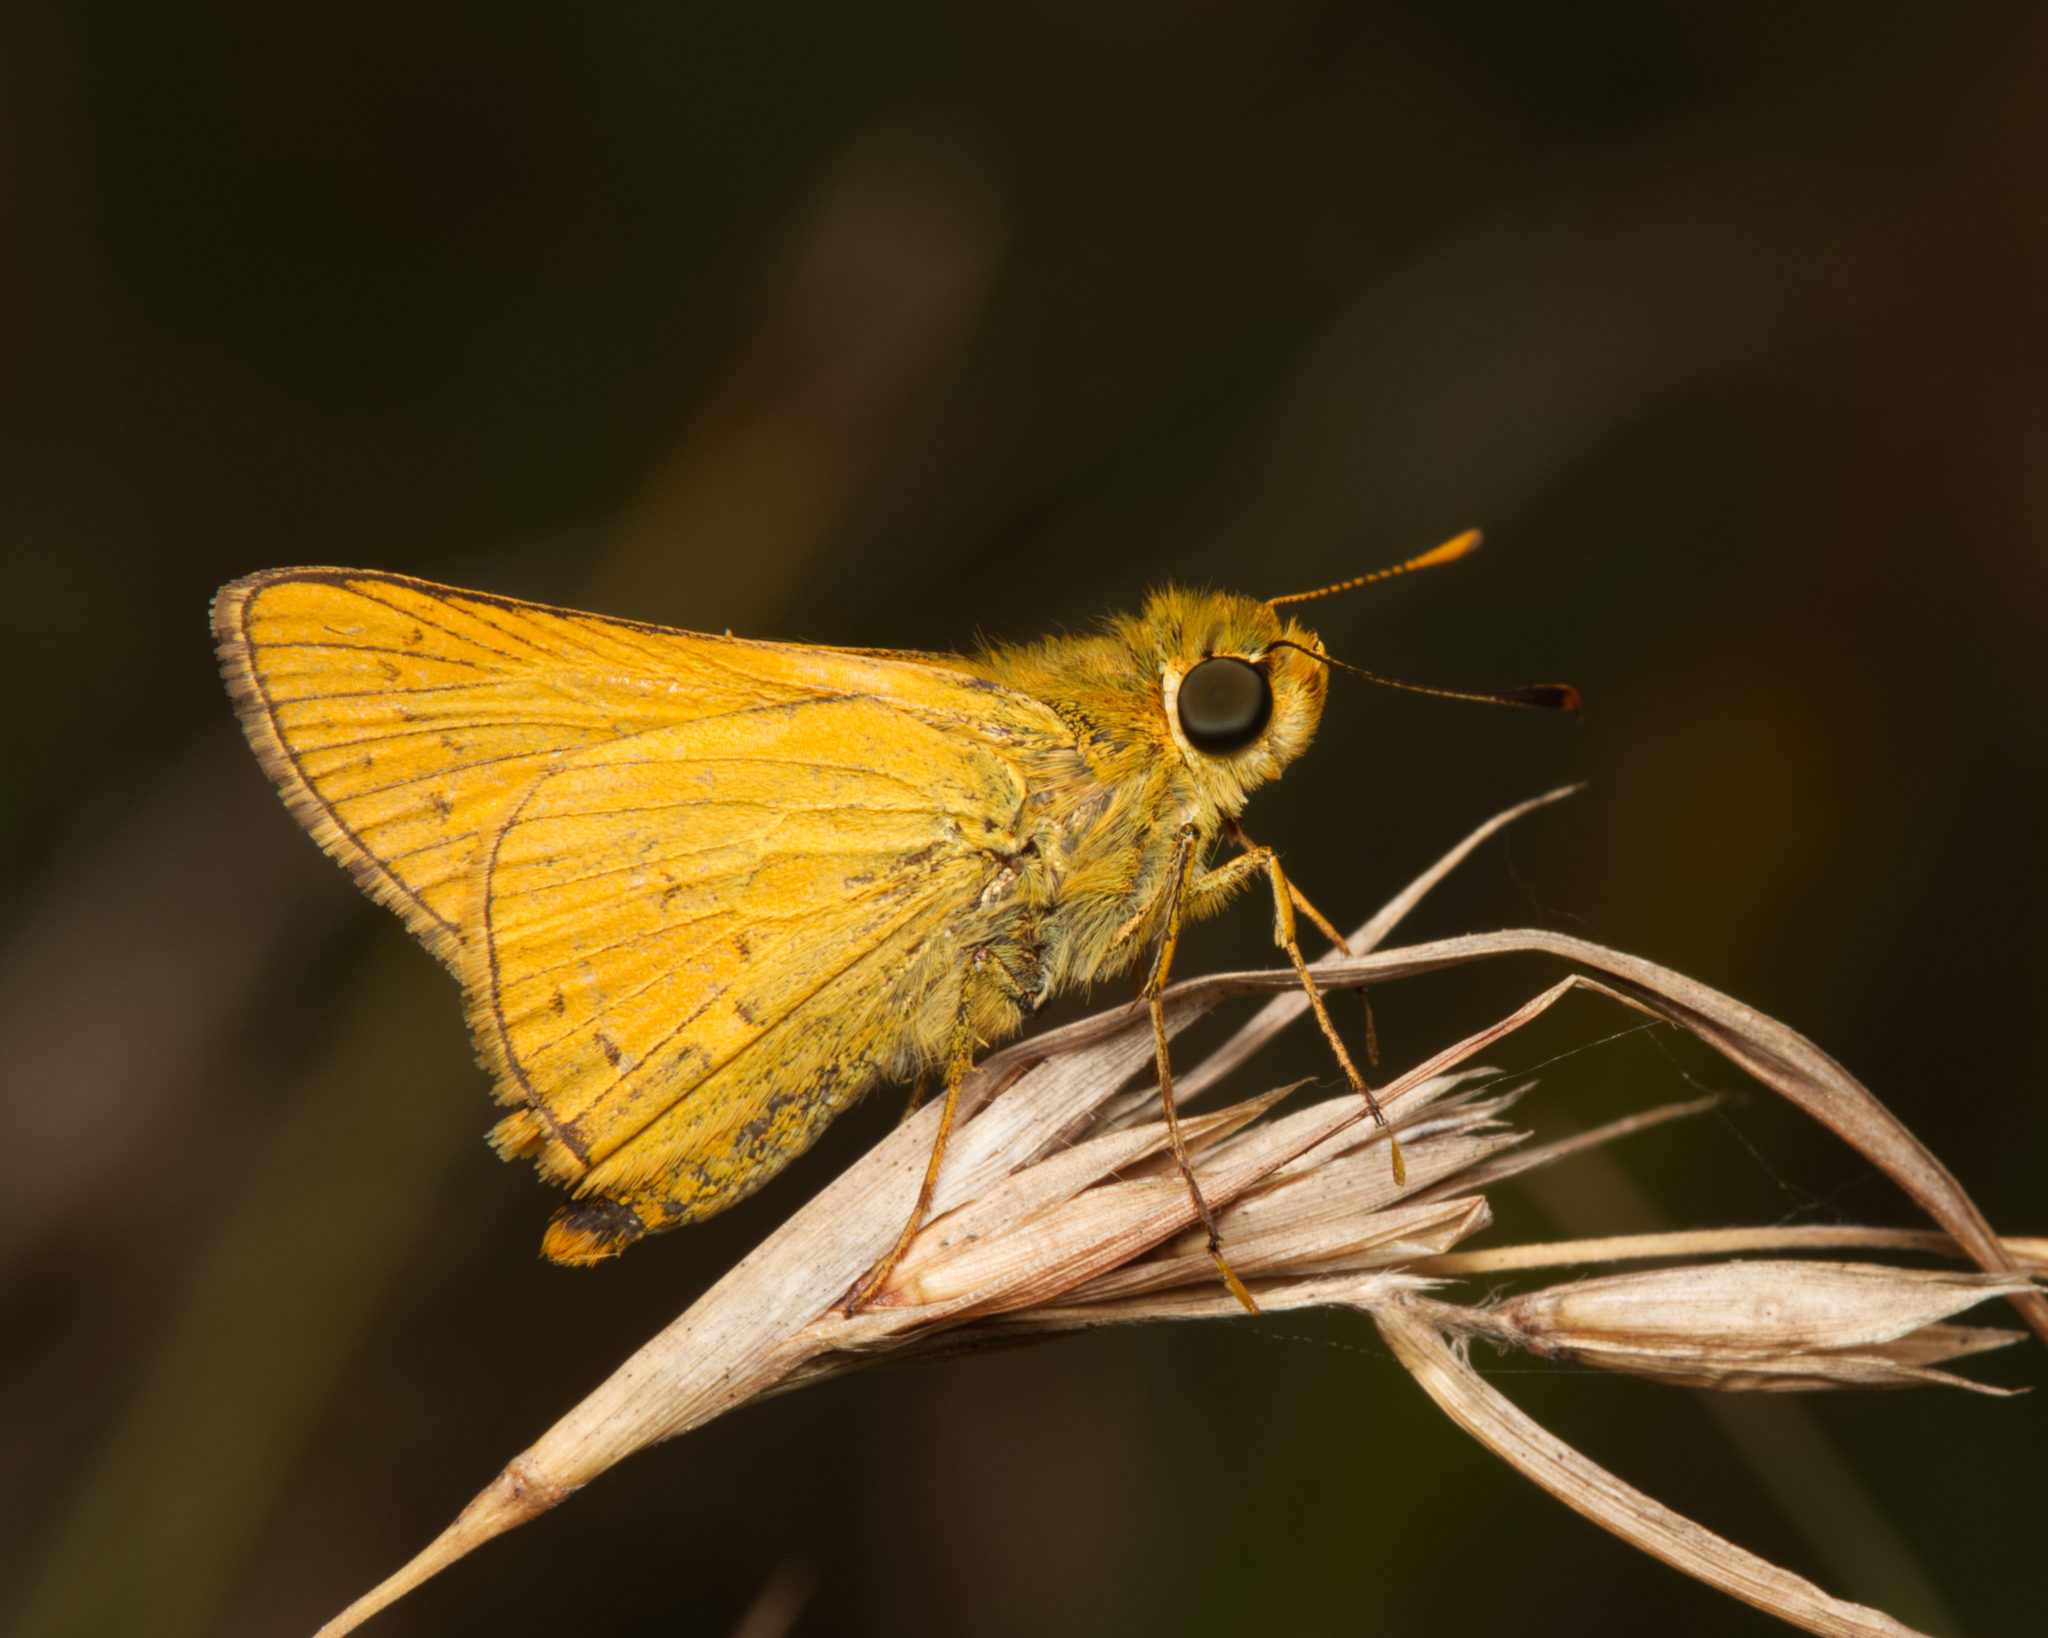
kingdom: Animalia
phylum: Arthropoda
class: Insecta
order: Lepidoptera
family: Hesperiidae
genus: Telicota
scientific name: Telicota colon
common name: Pale palm dart
